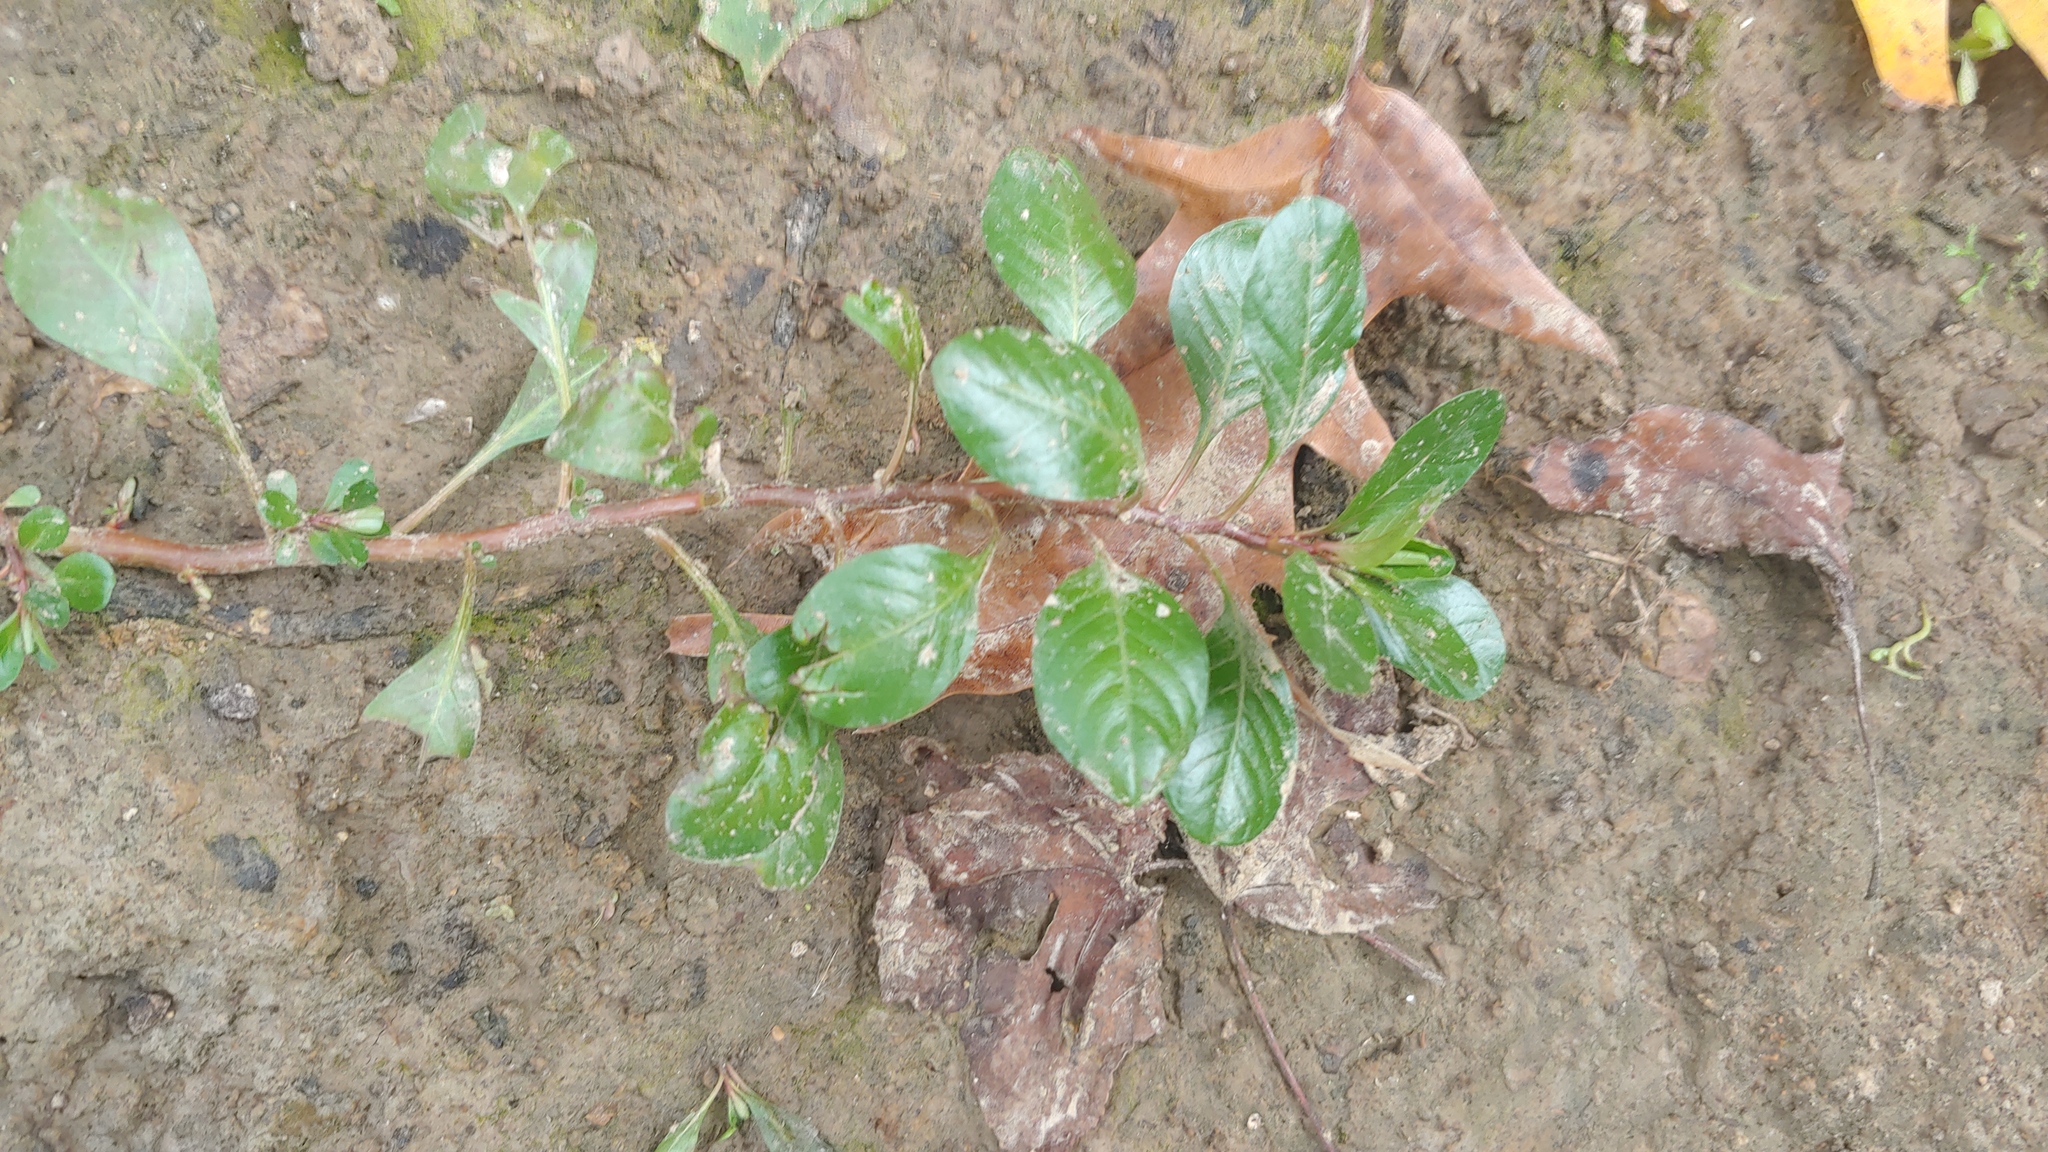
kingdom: Plantae
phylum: Tracheophyta
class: Magnoliopsida
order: Myrtales
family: Onagraceae
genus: Ludwigia
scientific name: Ludwigia peploides
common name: Floating primrose-willow
